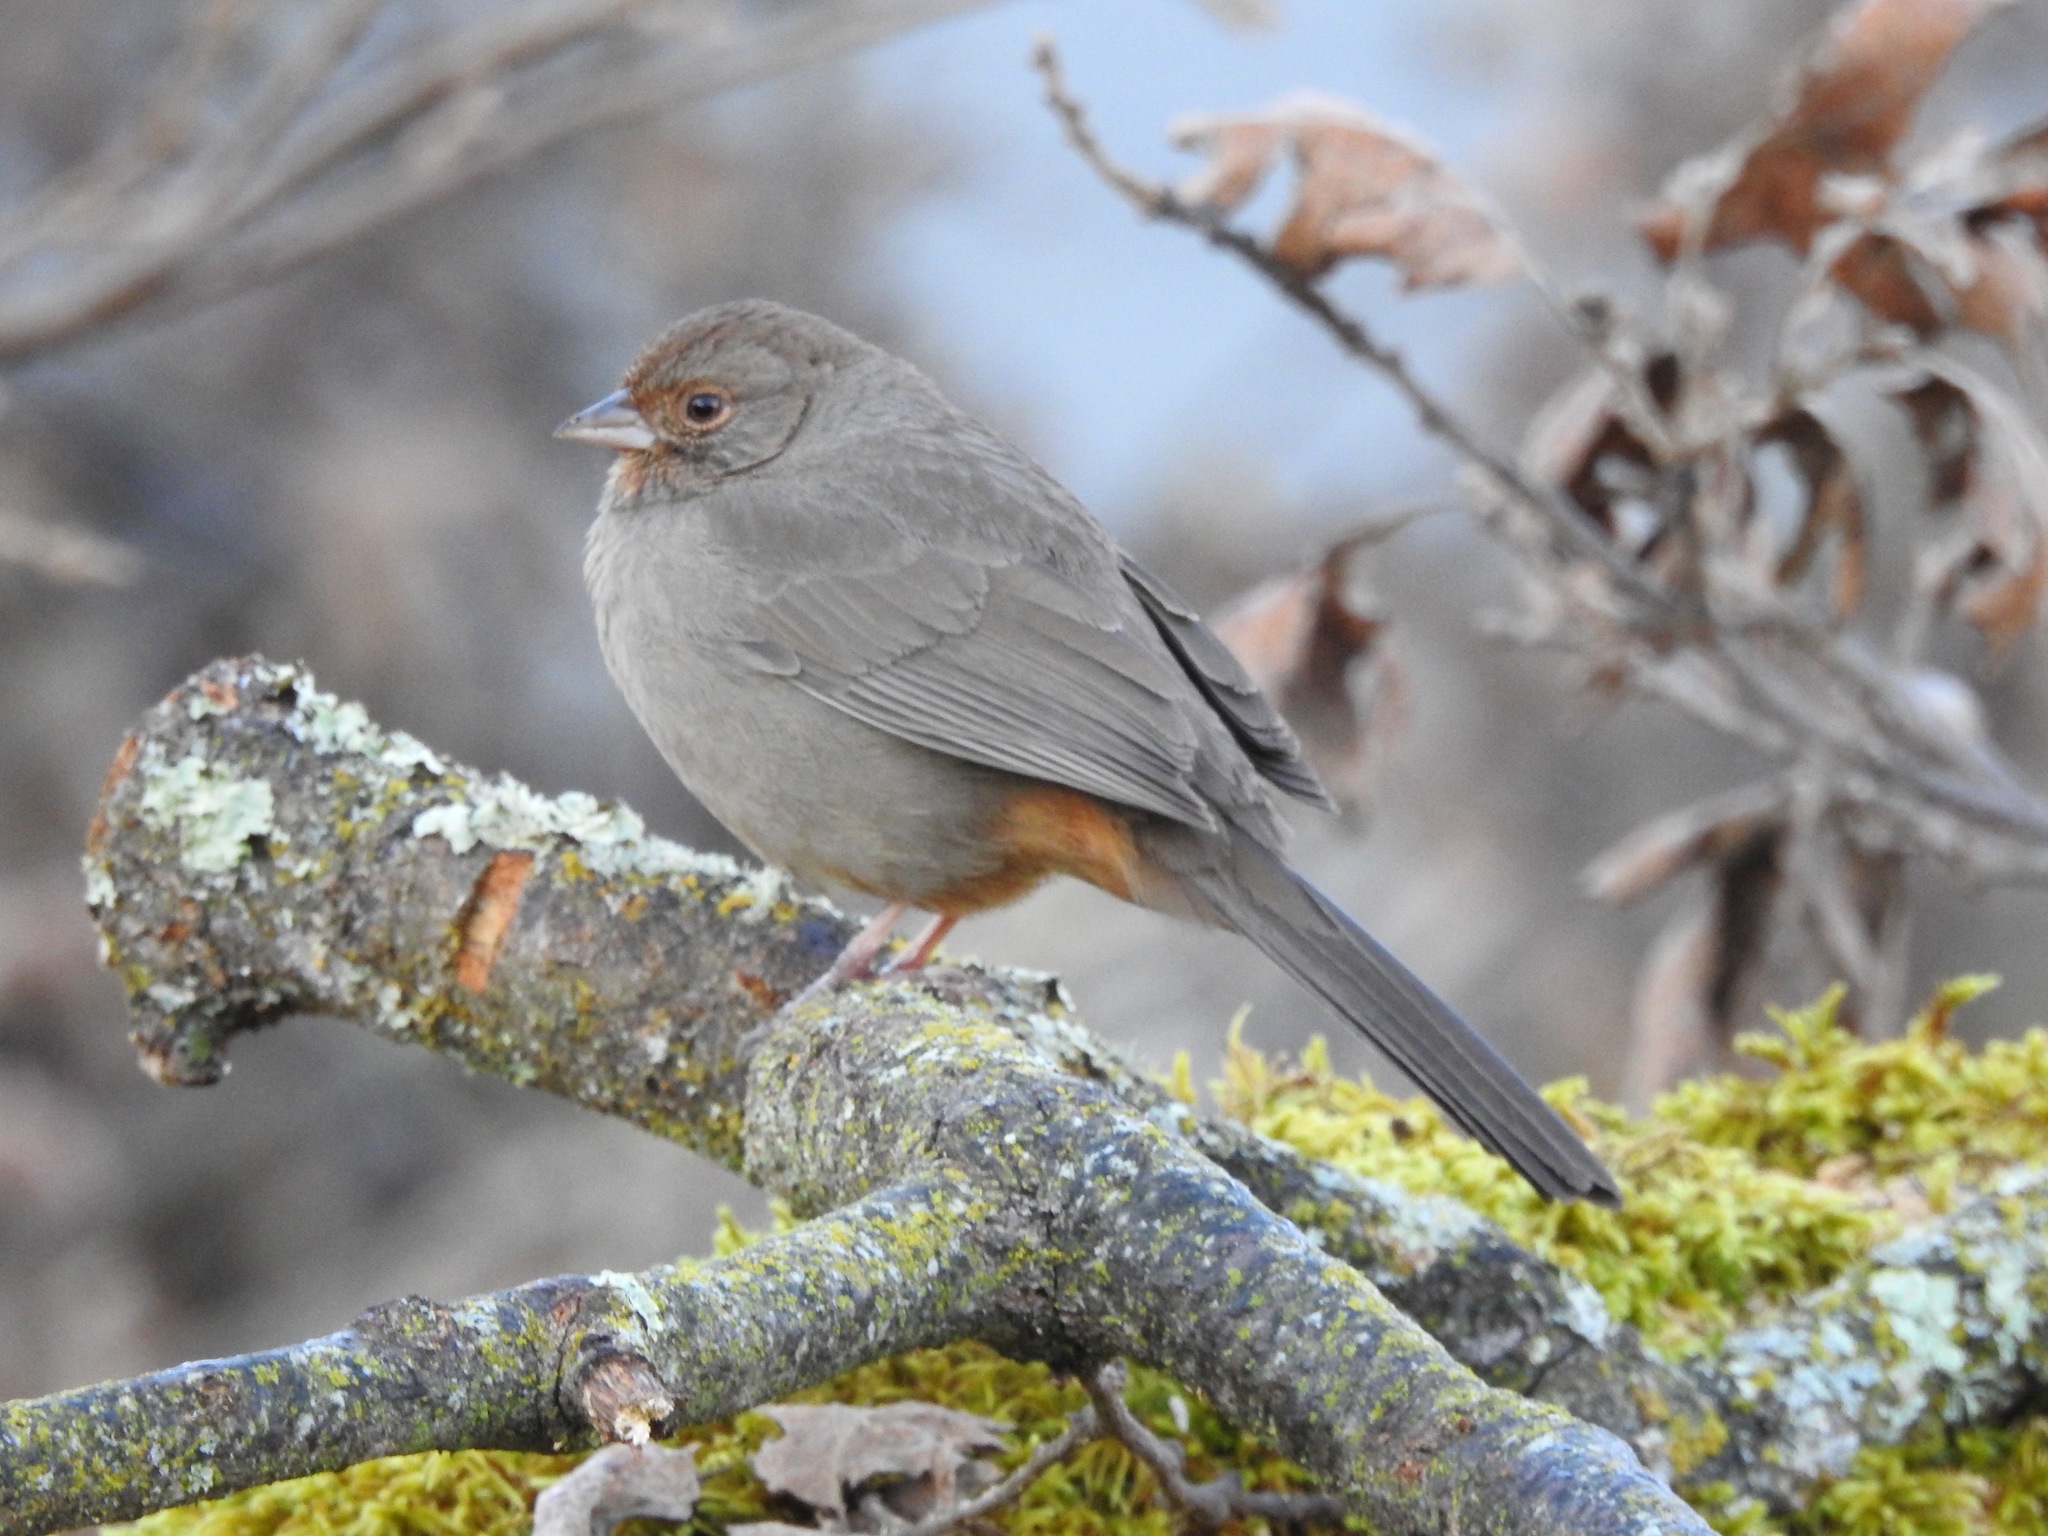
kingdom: Animalia
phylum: Chordata
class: Aves
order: Passeriformes
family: Passerellidae
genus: Melozone
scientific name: Melozone crissalis
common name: California towhee
